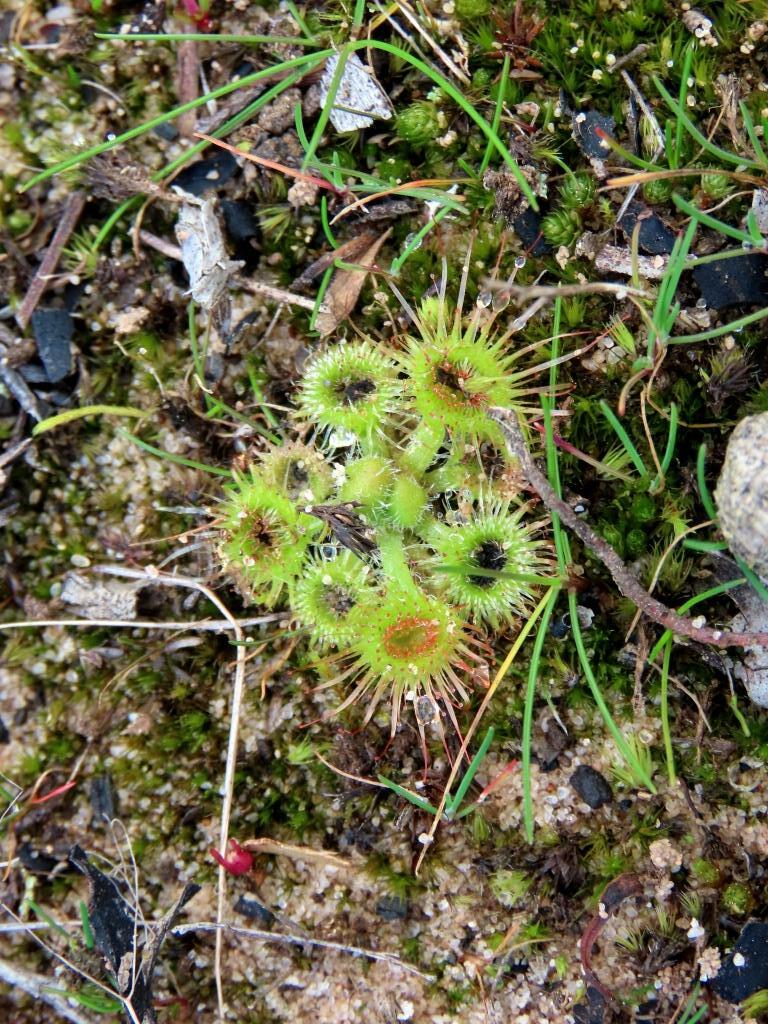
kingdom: Plantae
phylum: Tracheophyta
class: Magnoliopsida
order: Caryophyllales
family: Droseraceae
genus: Drosera
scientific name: Drosera glanduligera
